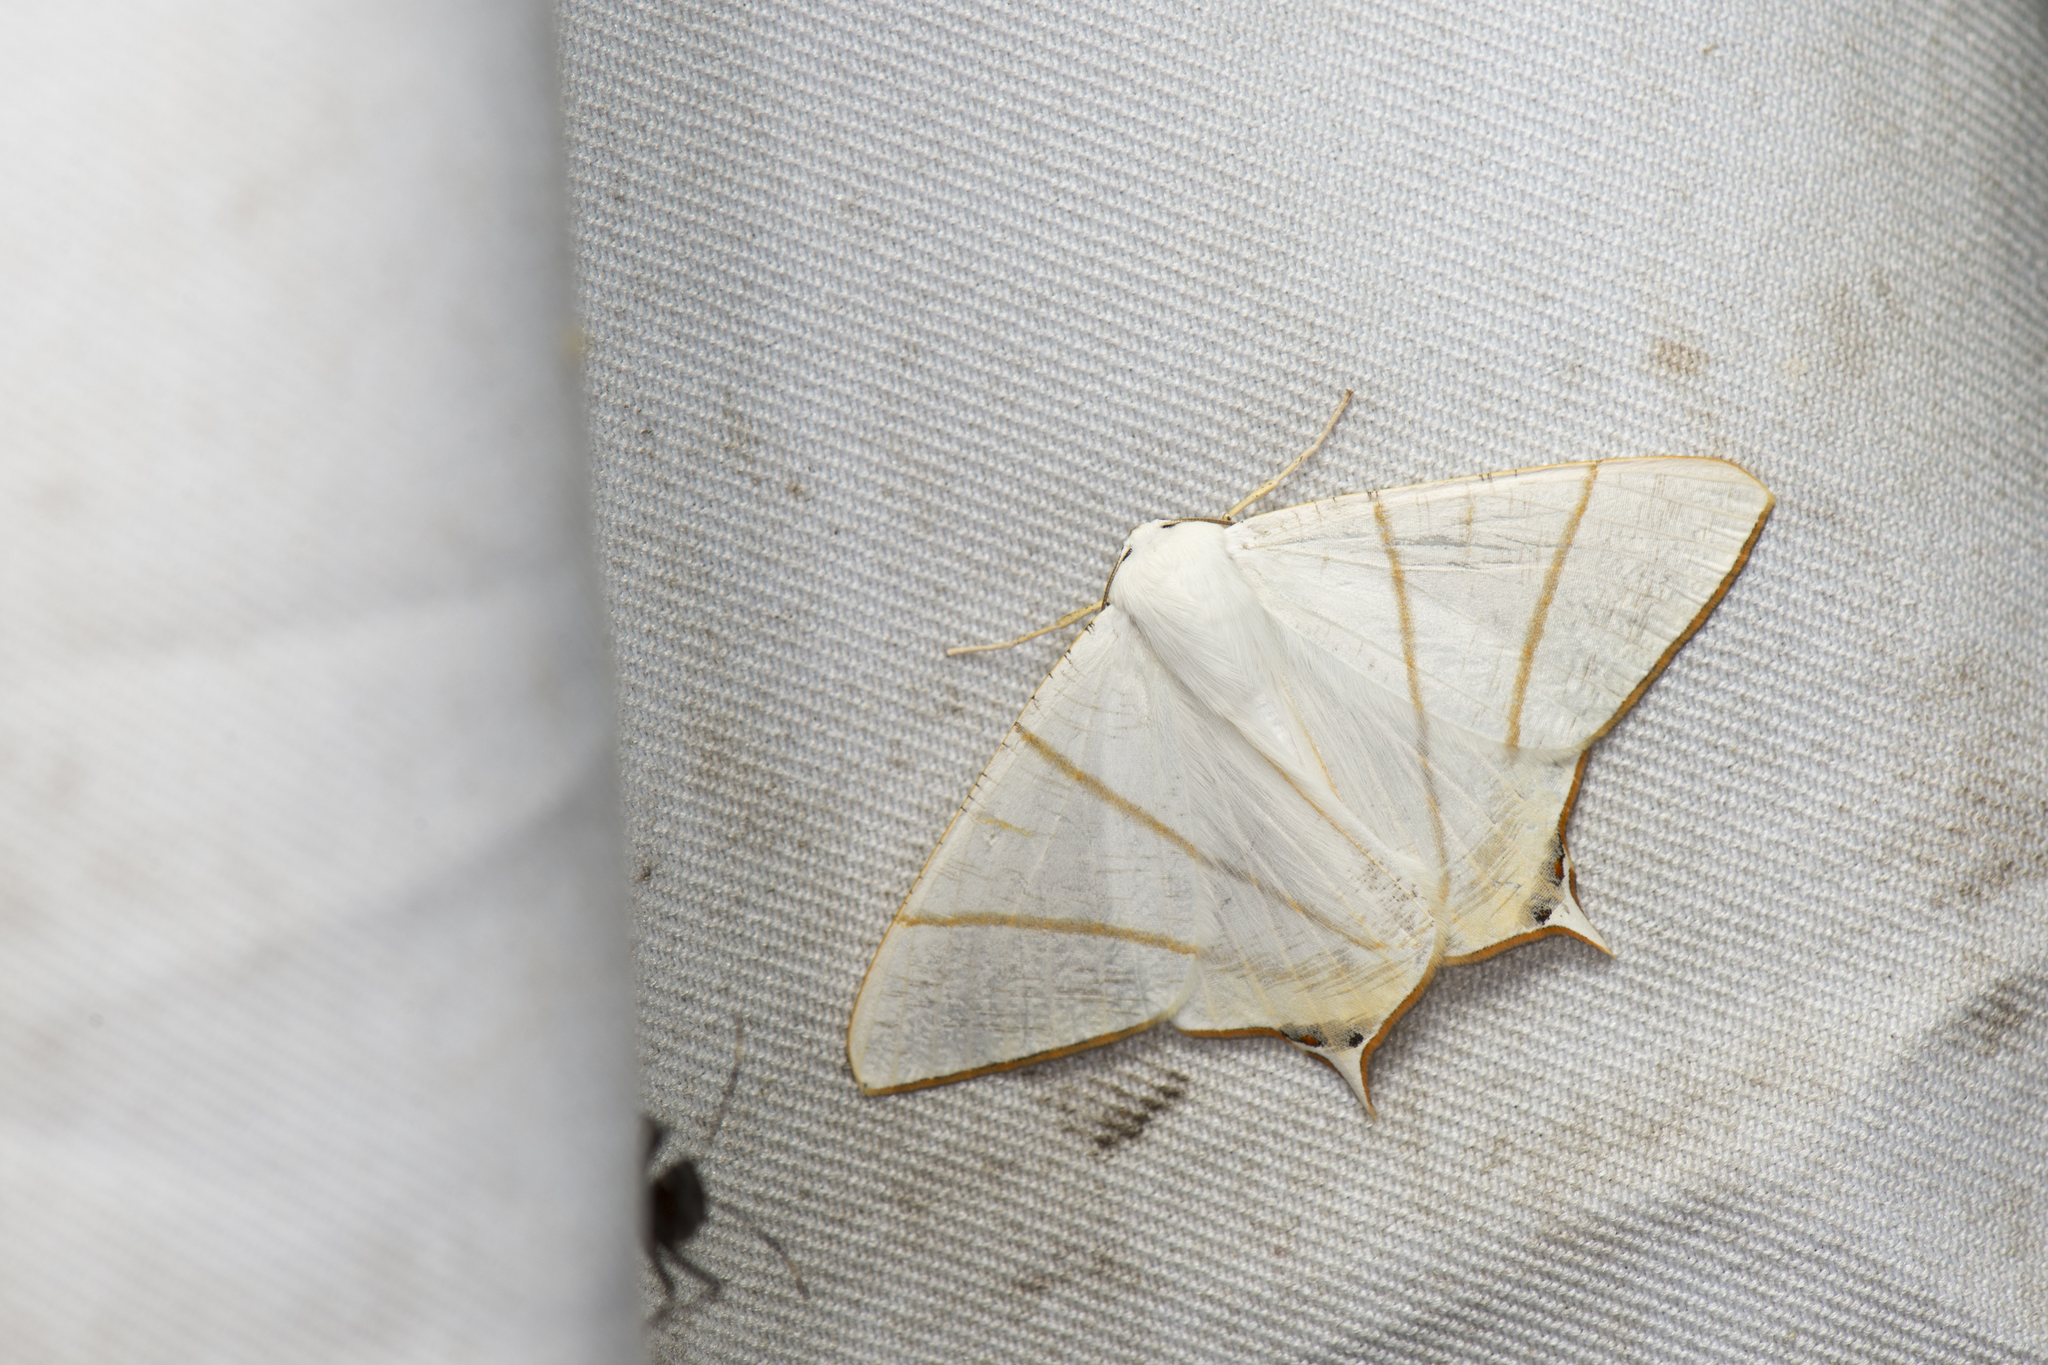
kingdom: Animalia
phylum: Arthropoda
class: Insecta
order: Lepidoptera
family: Geometridae
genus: Ourapteryx
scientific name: Ourapteryx changi
